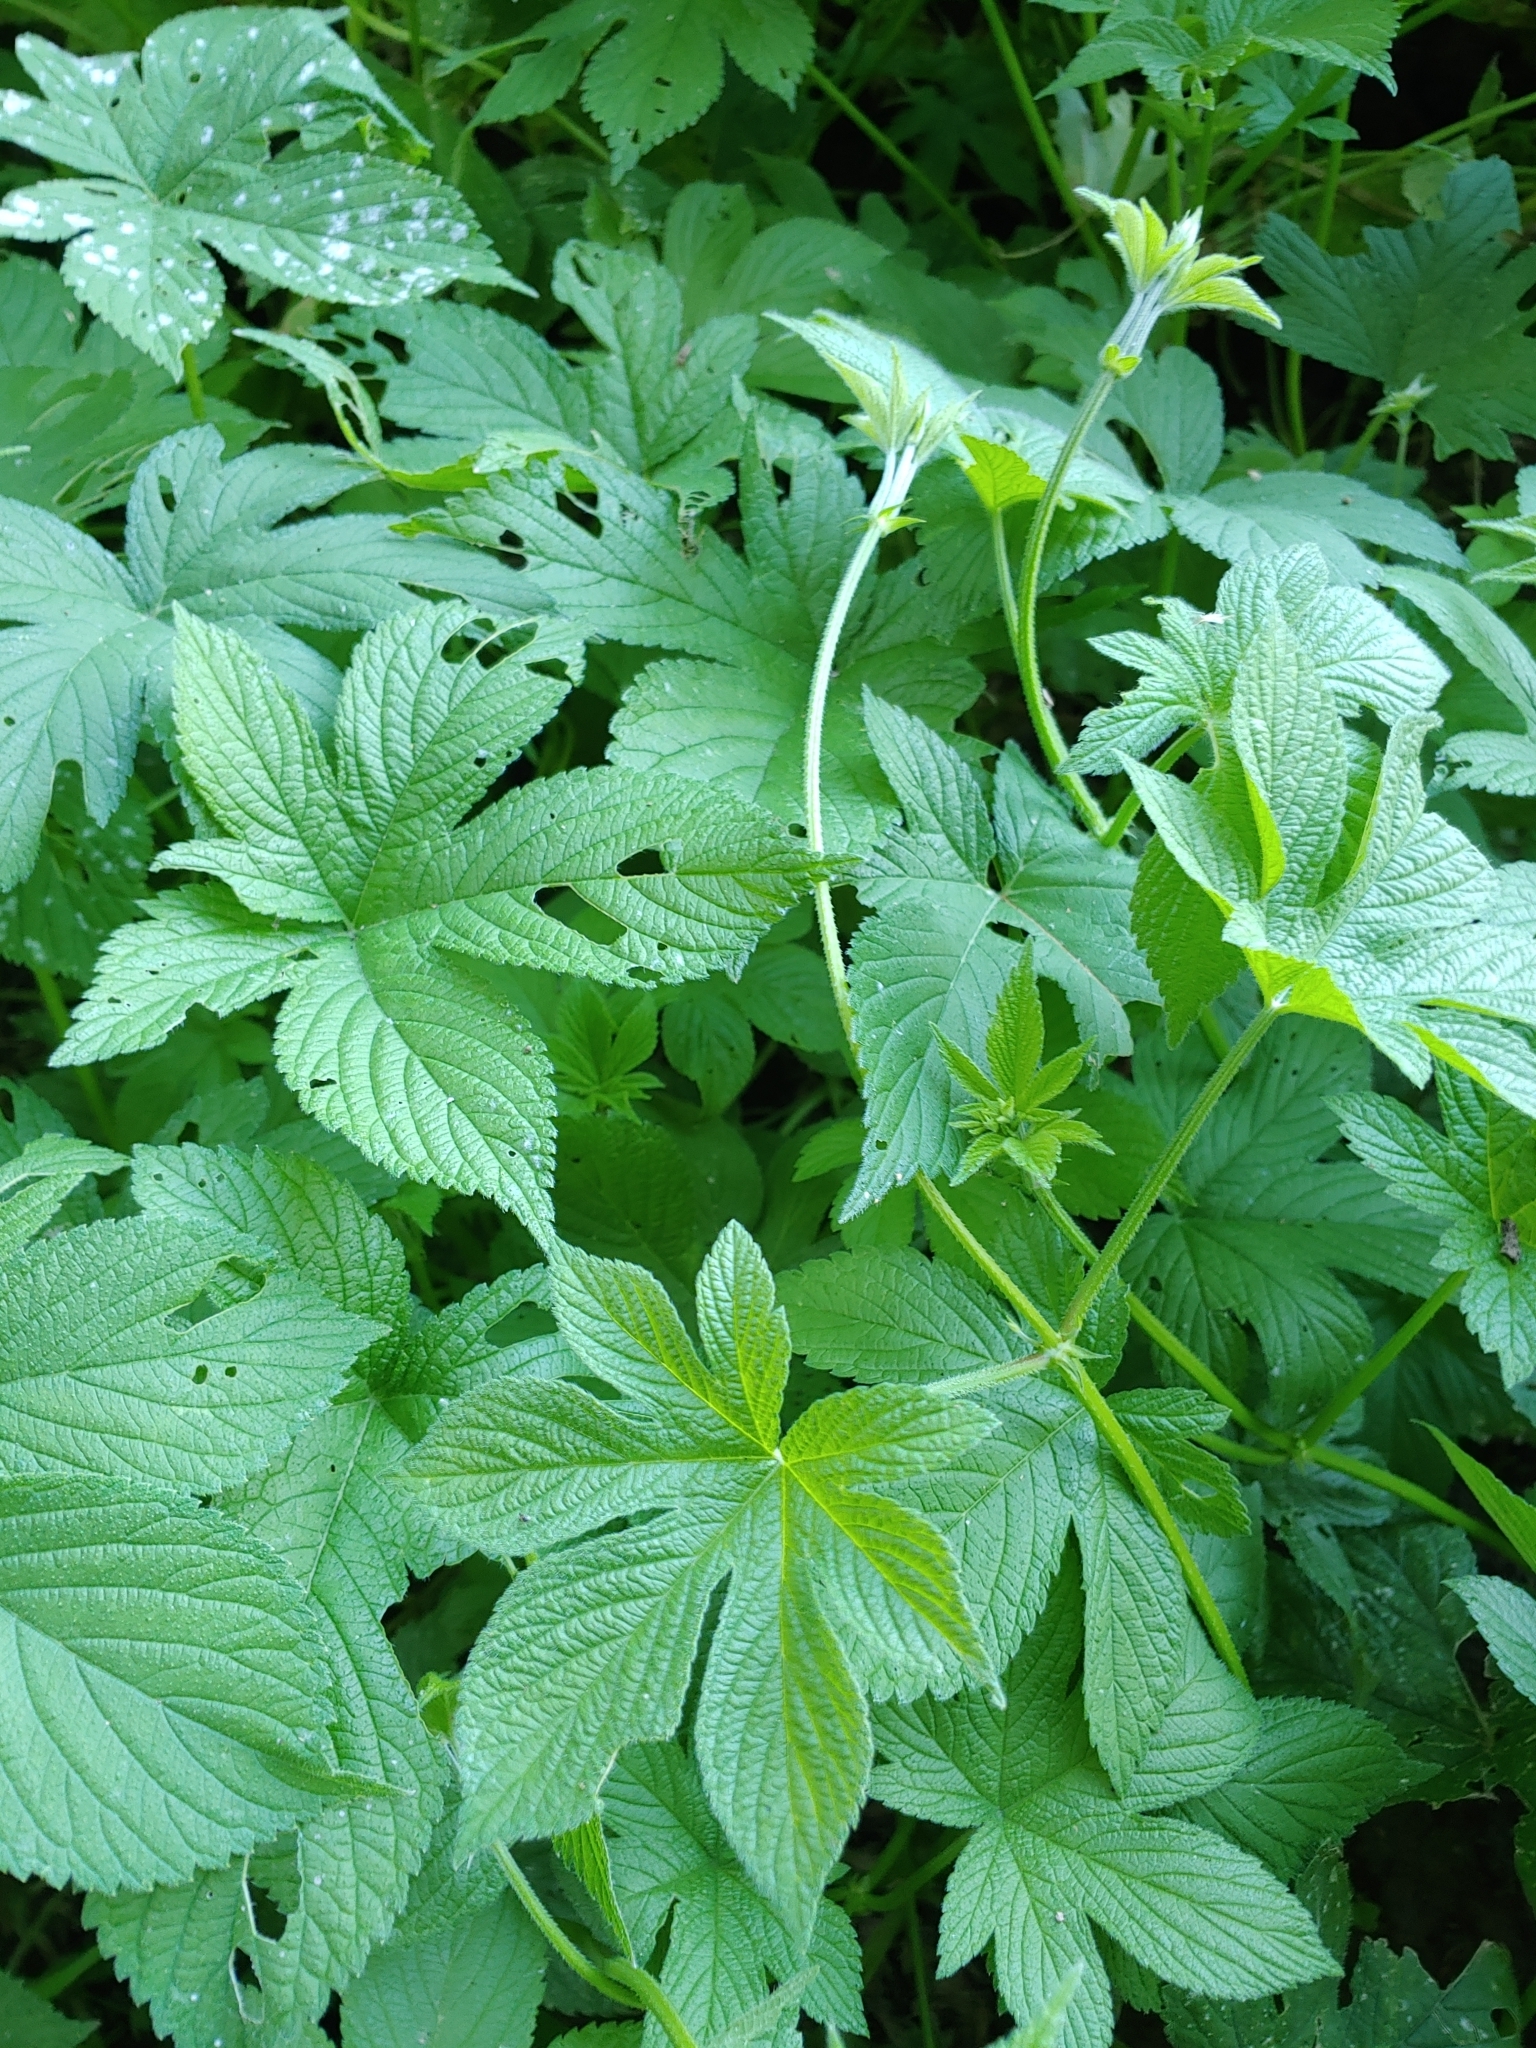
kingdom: Plantae
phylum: Tracheophyta
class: Magnoliopsida
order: Rosales
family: Cannabaceae
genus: Humulus
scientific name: Humulus scandens
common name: Japanese hop
